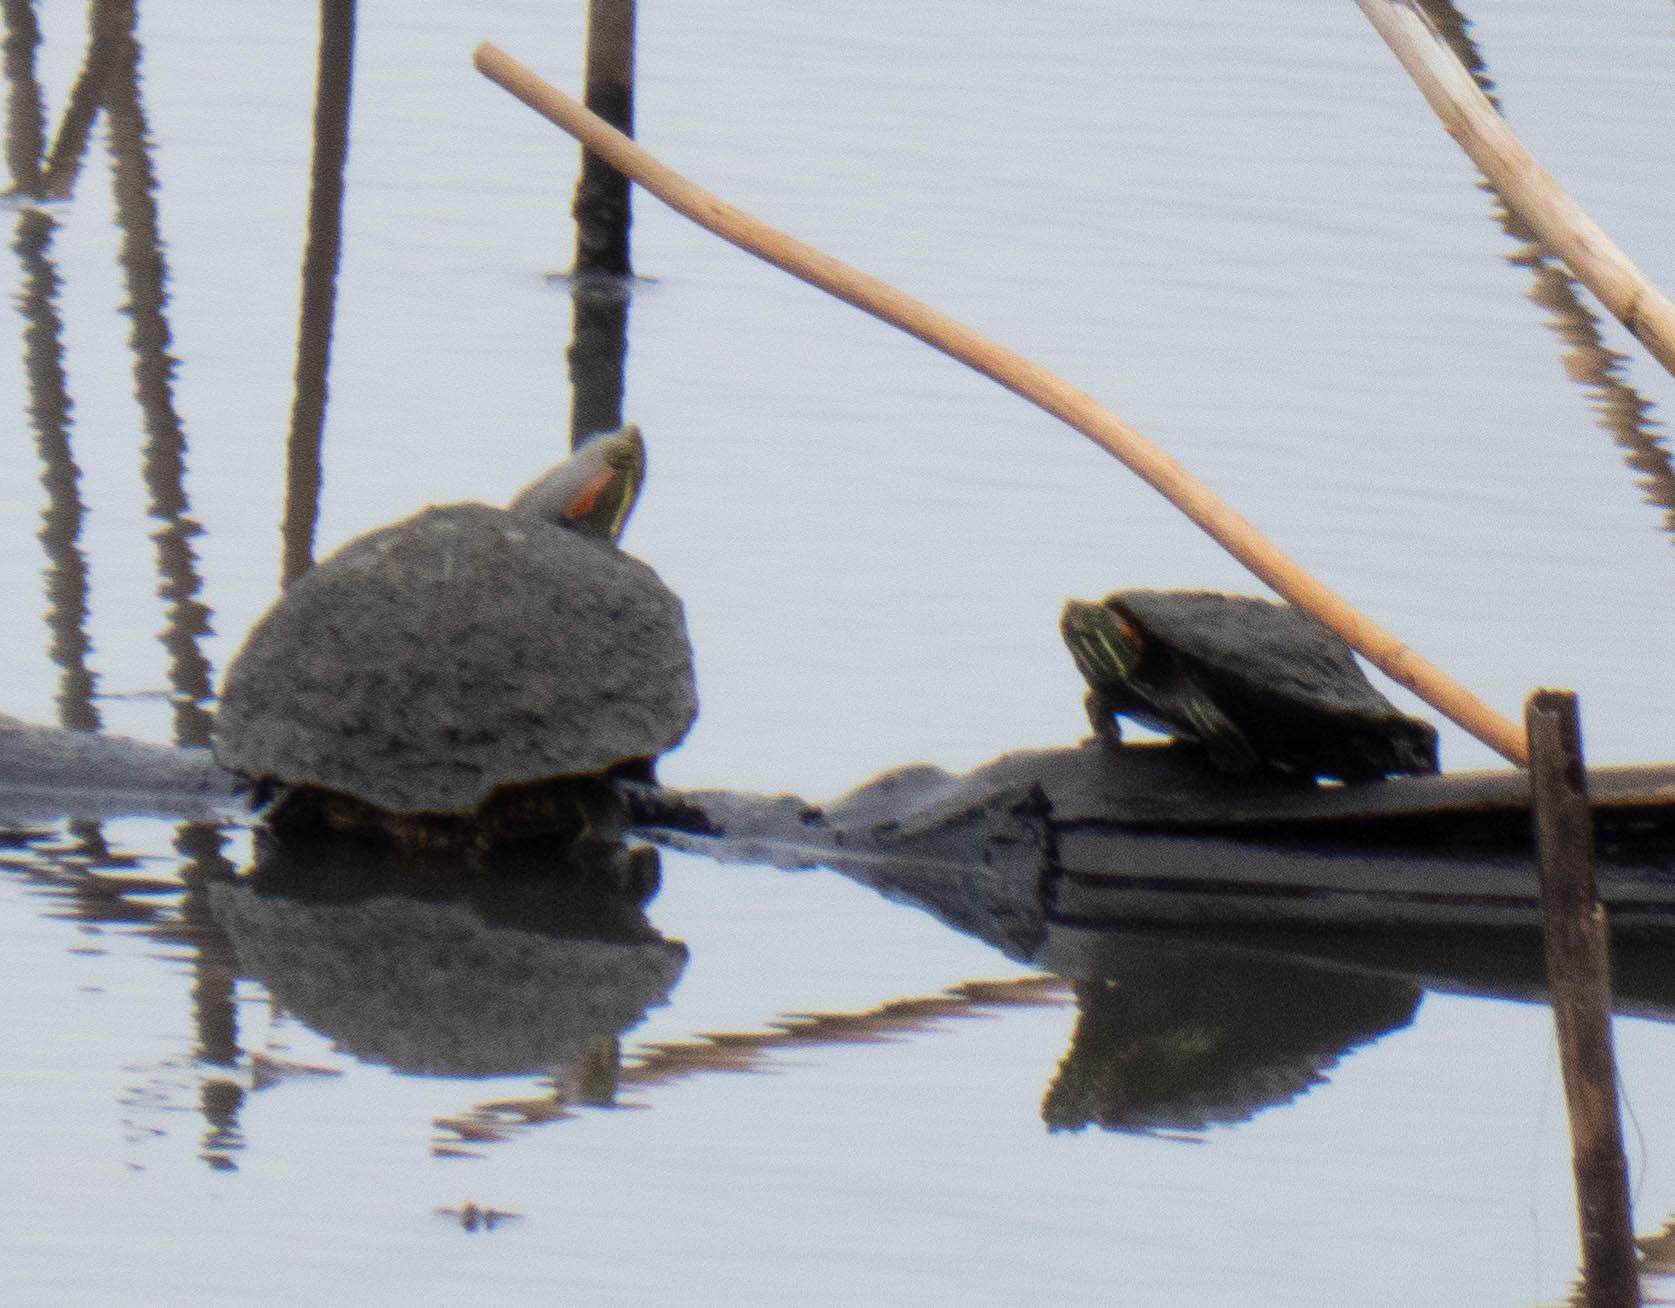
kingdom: Animalia
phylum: Chordata
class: Testudines
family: Emydidae
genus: Trachemys
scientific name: Trachemys scripta
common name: Slider
